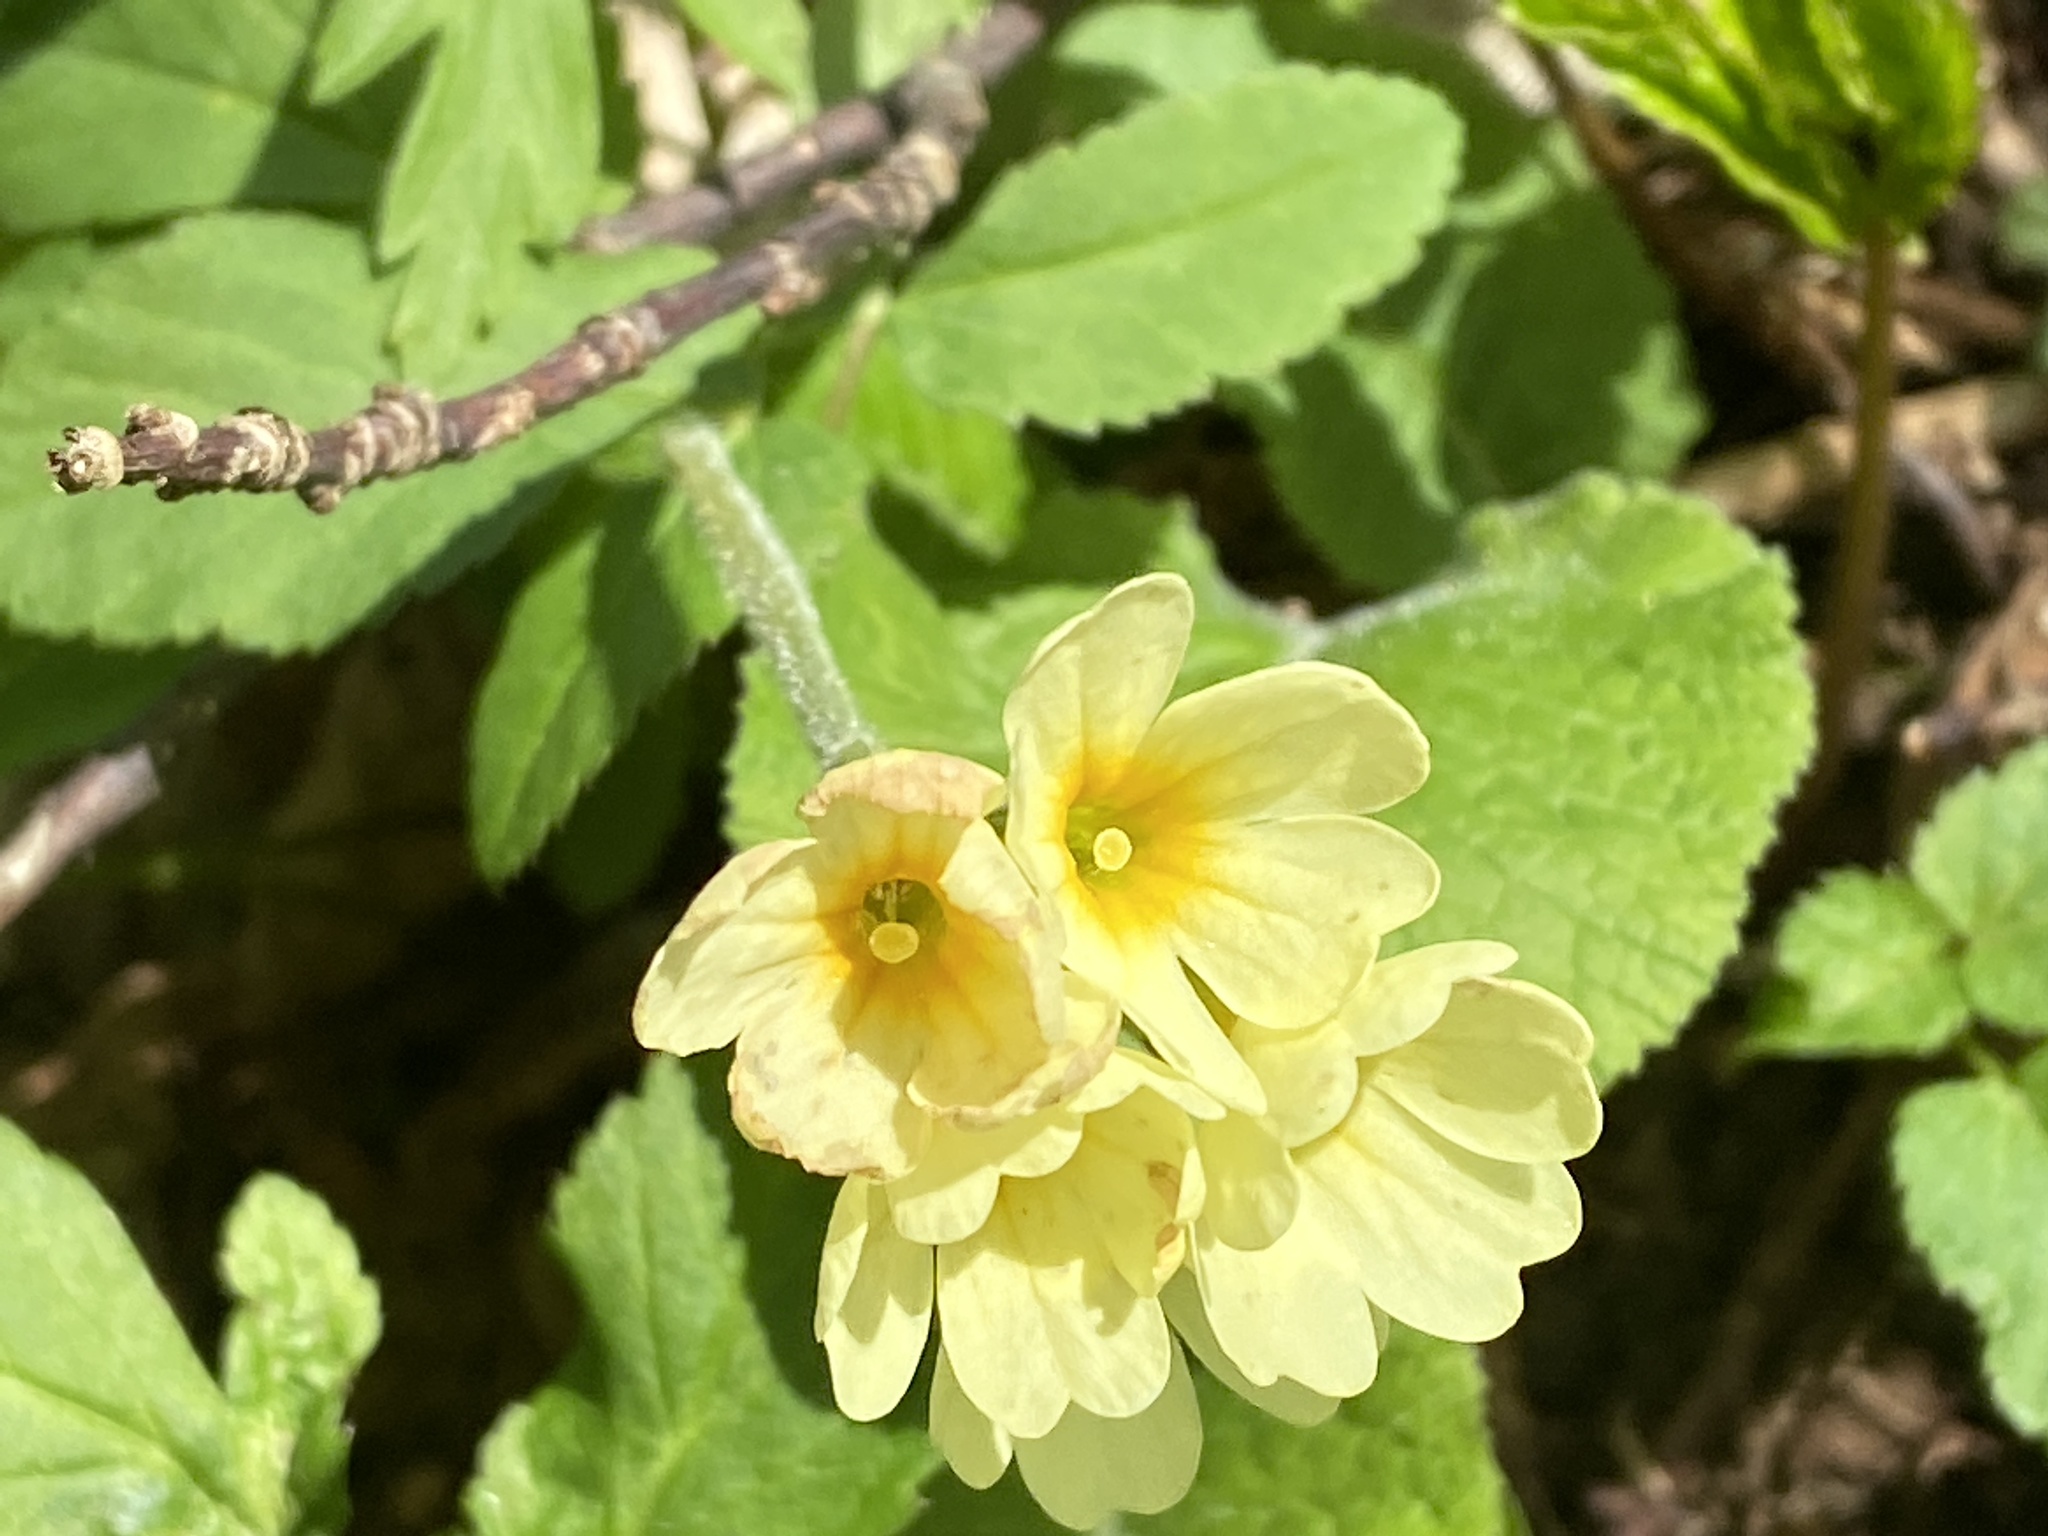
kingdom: Plantae
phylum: Tracheophyta
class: Magnoliopsida
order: Ericales
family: Primulaceae
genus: Primula
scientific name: Primula elatior
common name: Oxlip
